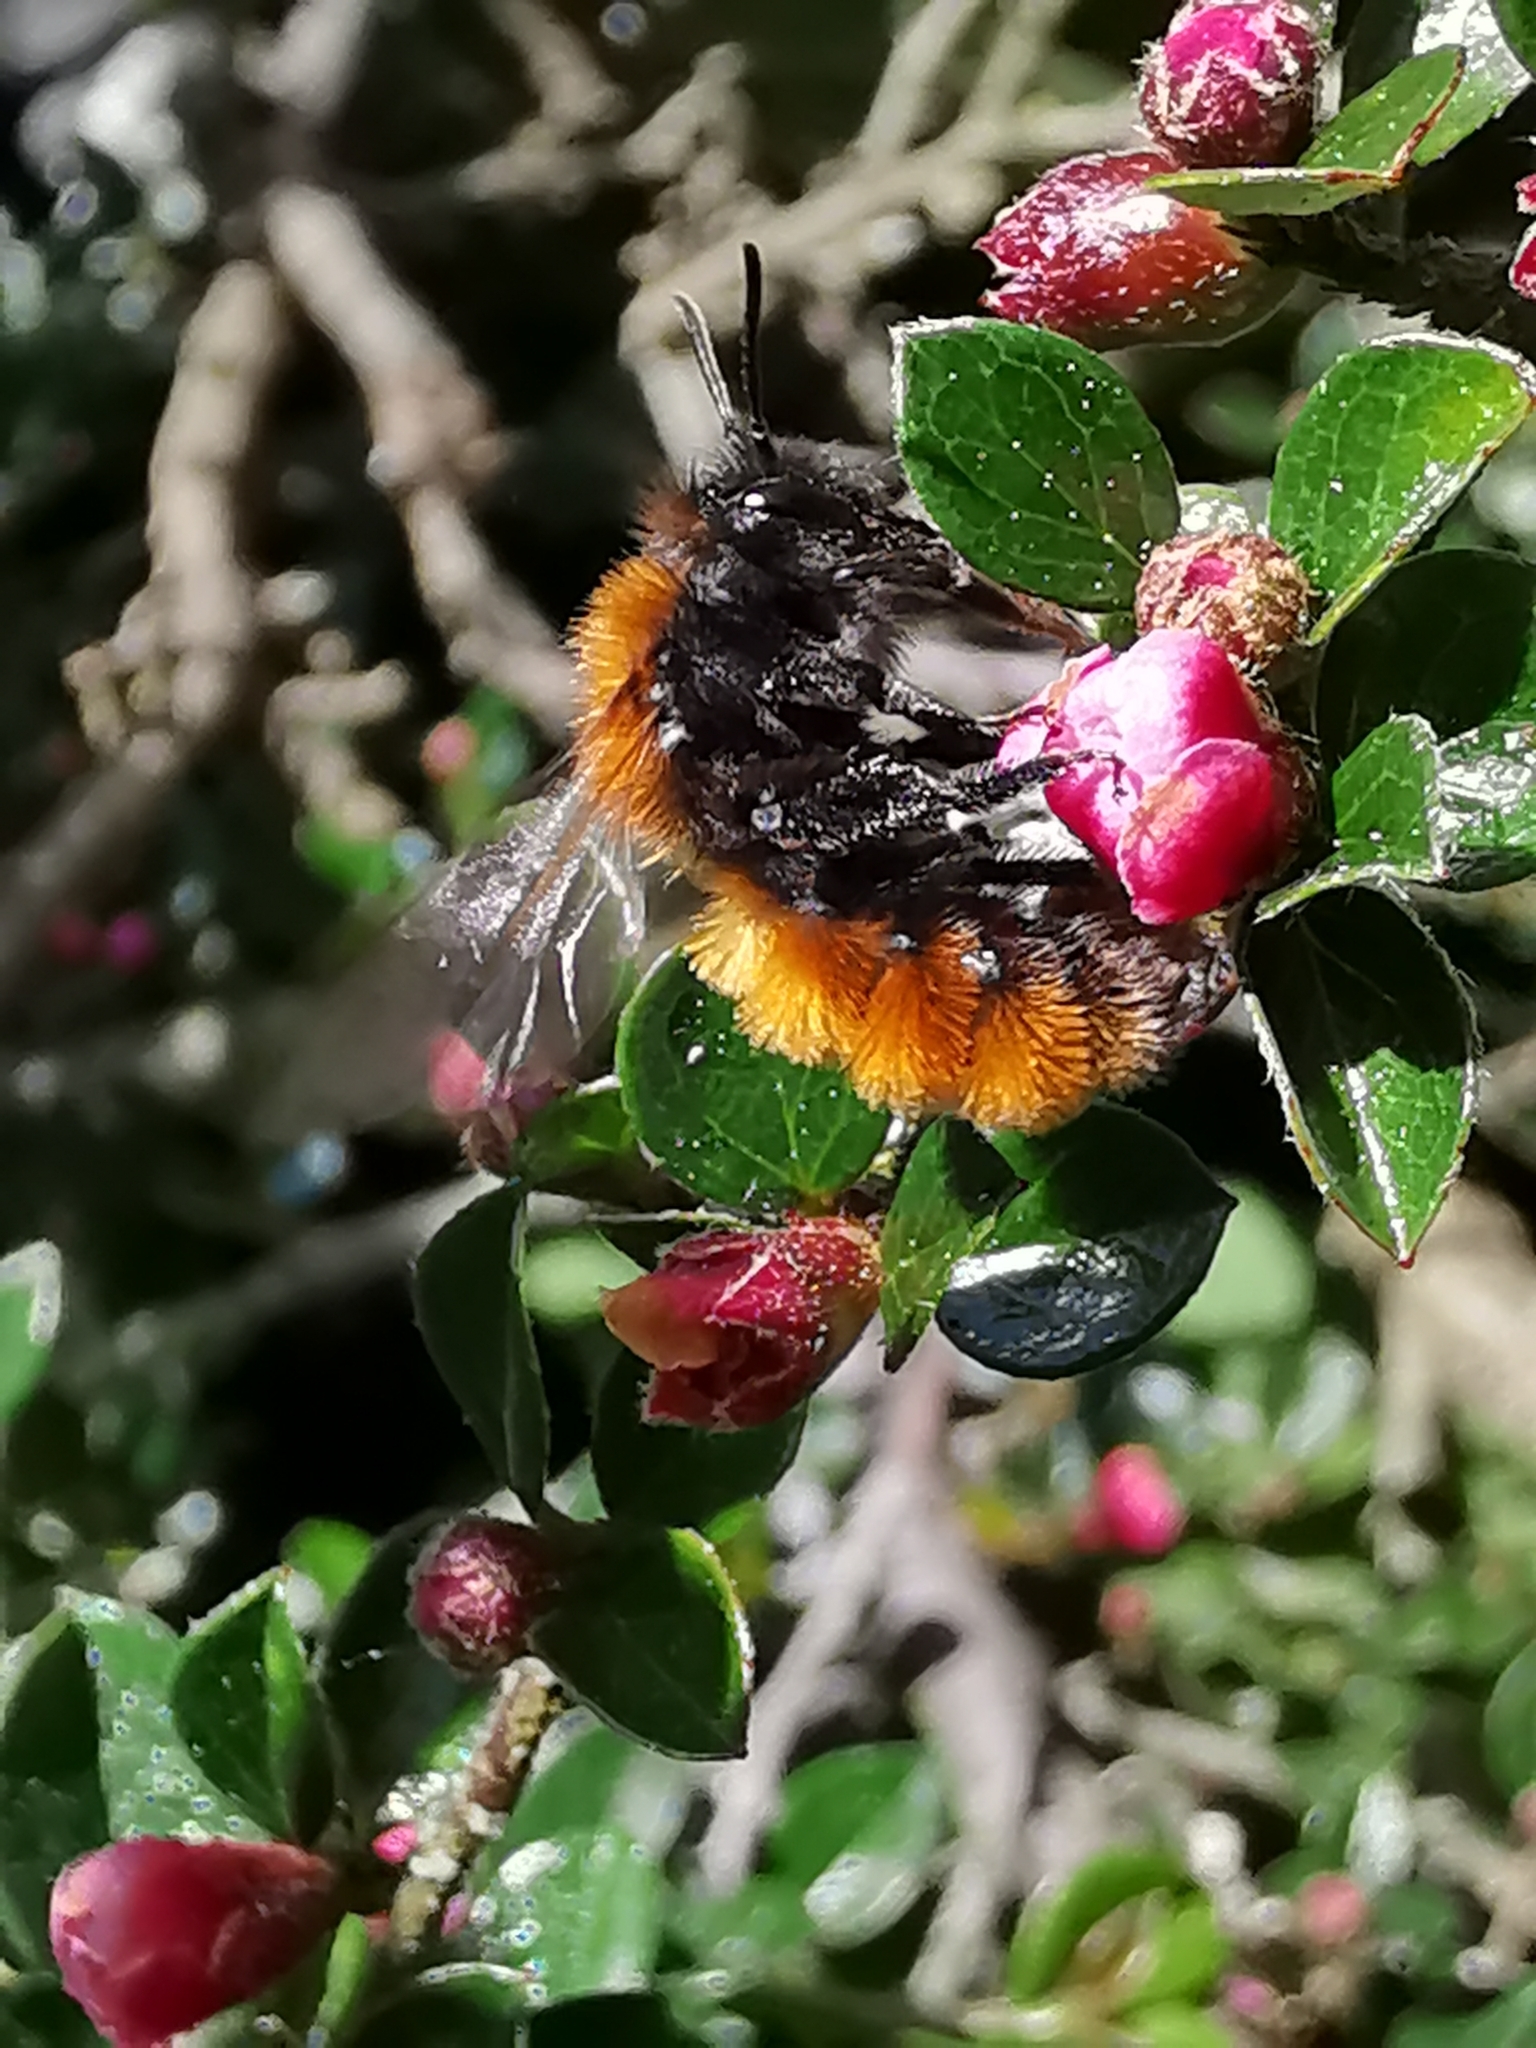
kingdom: Animalia
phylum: Arthropoda
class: Insecta
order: Hymenoptera
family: Andrenidae
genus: Andrena
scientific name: Andrena fulva
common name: Tawny mining bee
